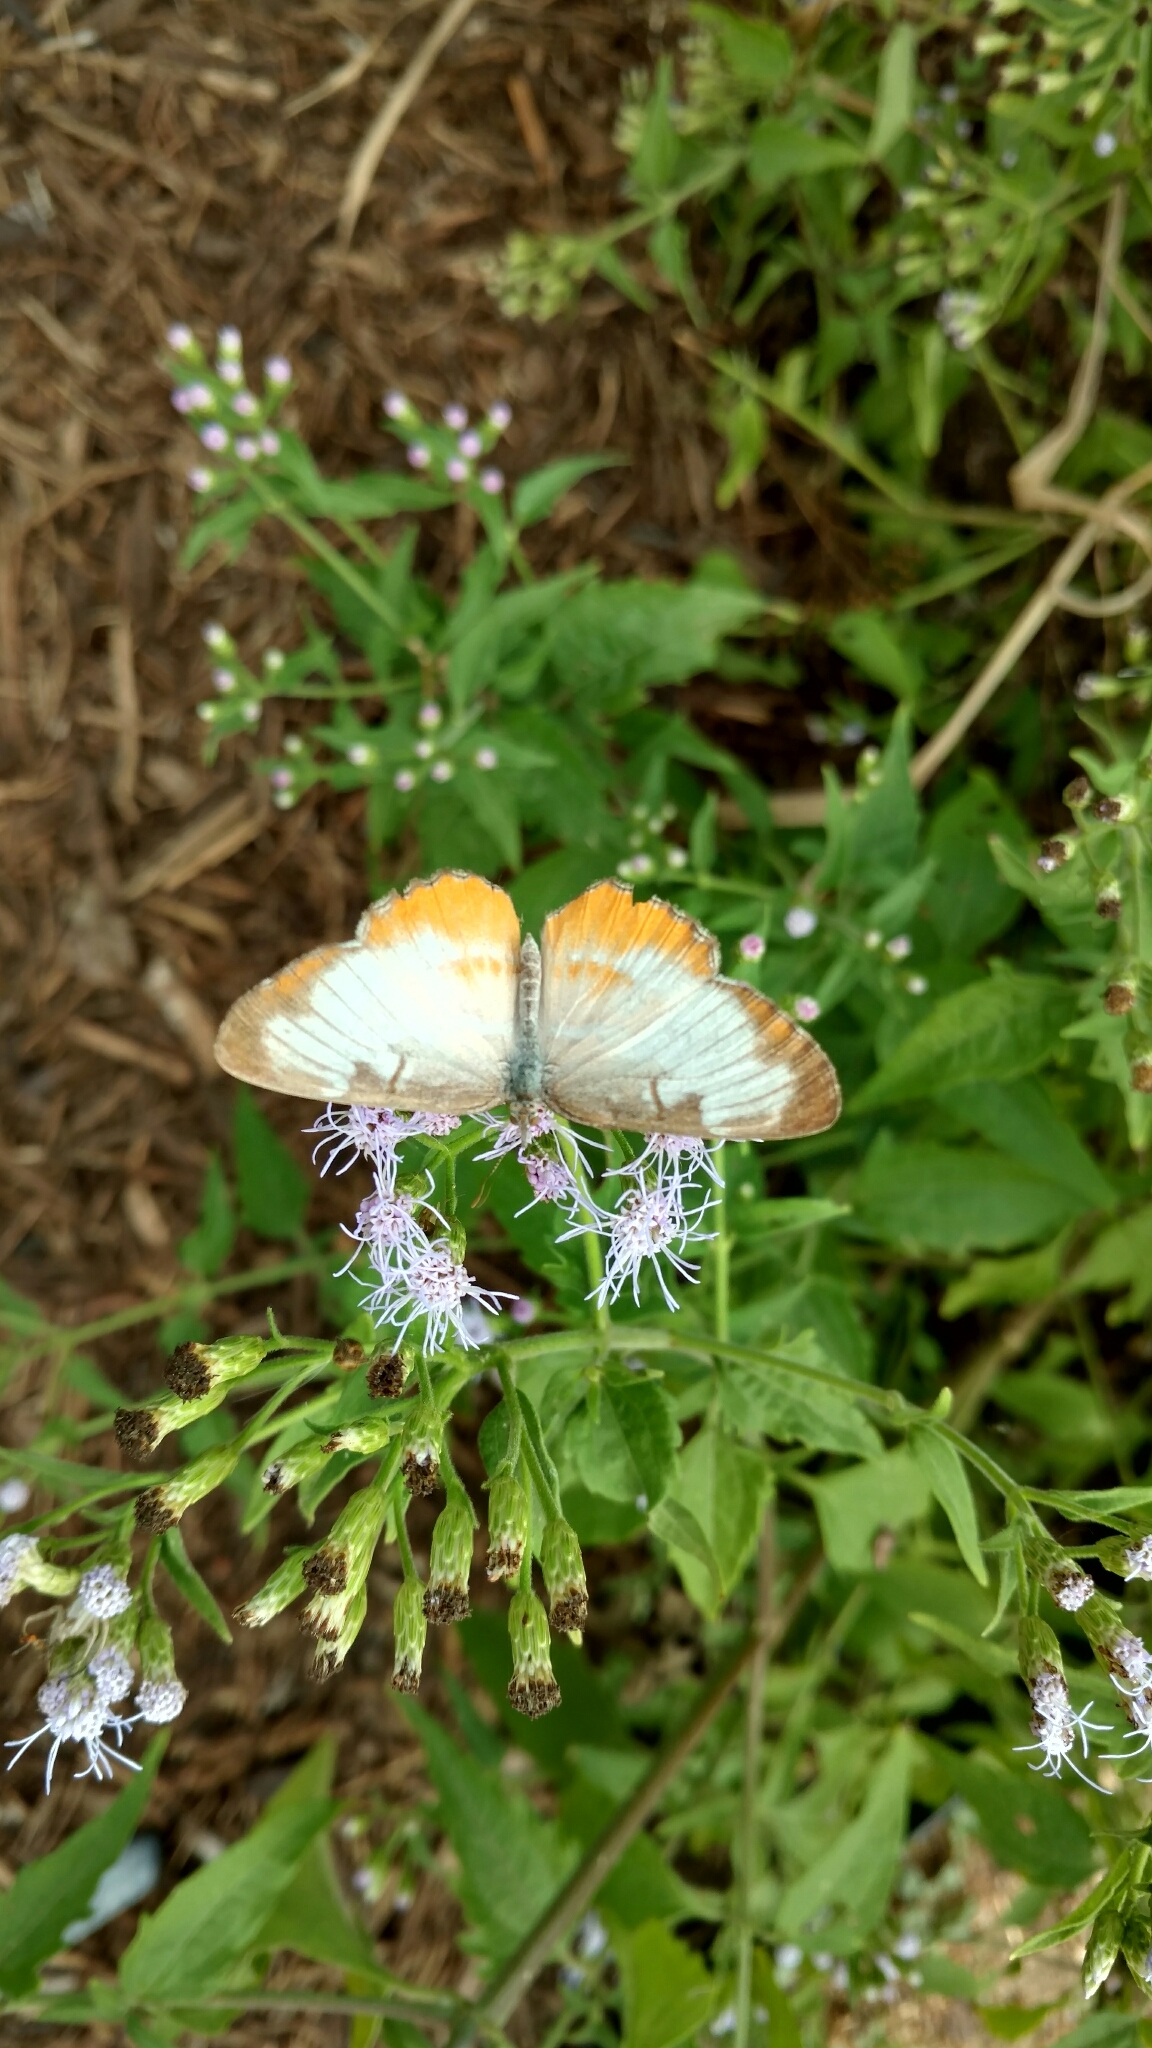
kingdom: Animalia
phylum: Arthropoda
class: Insecta
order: Lepidoptera
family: Nymphalidae
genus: Mestra
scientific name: Mestra amymone
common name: Common mestra
